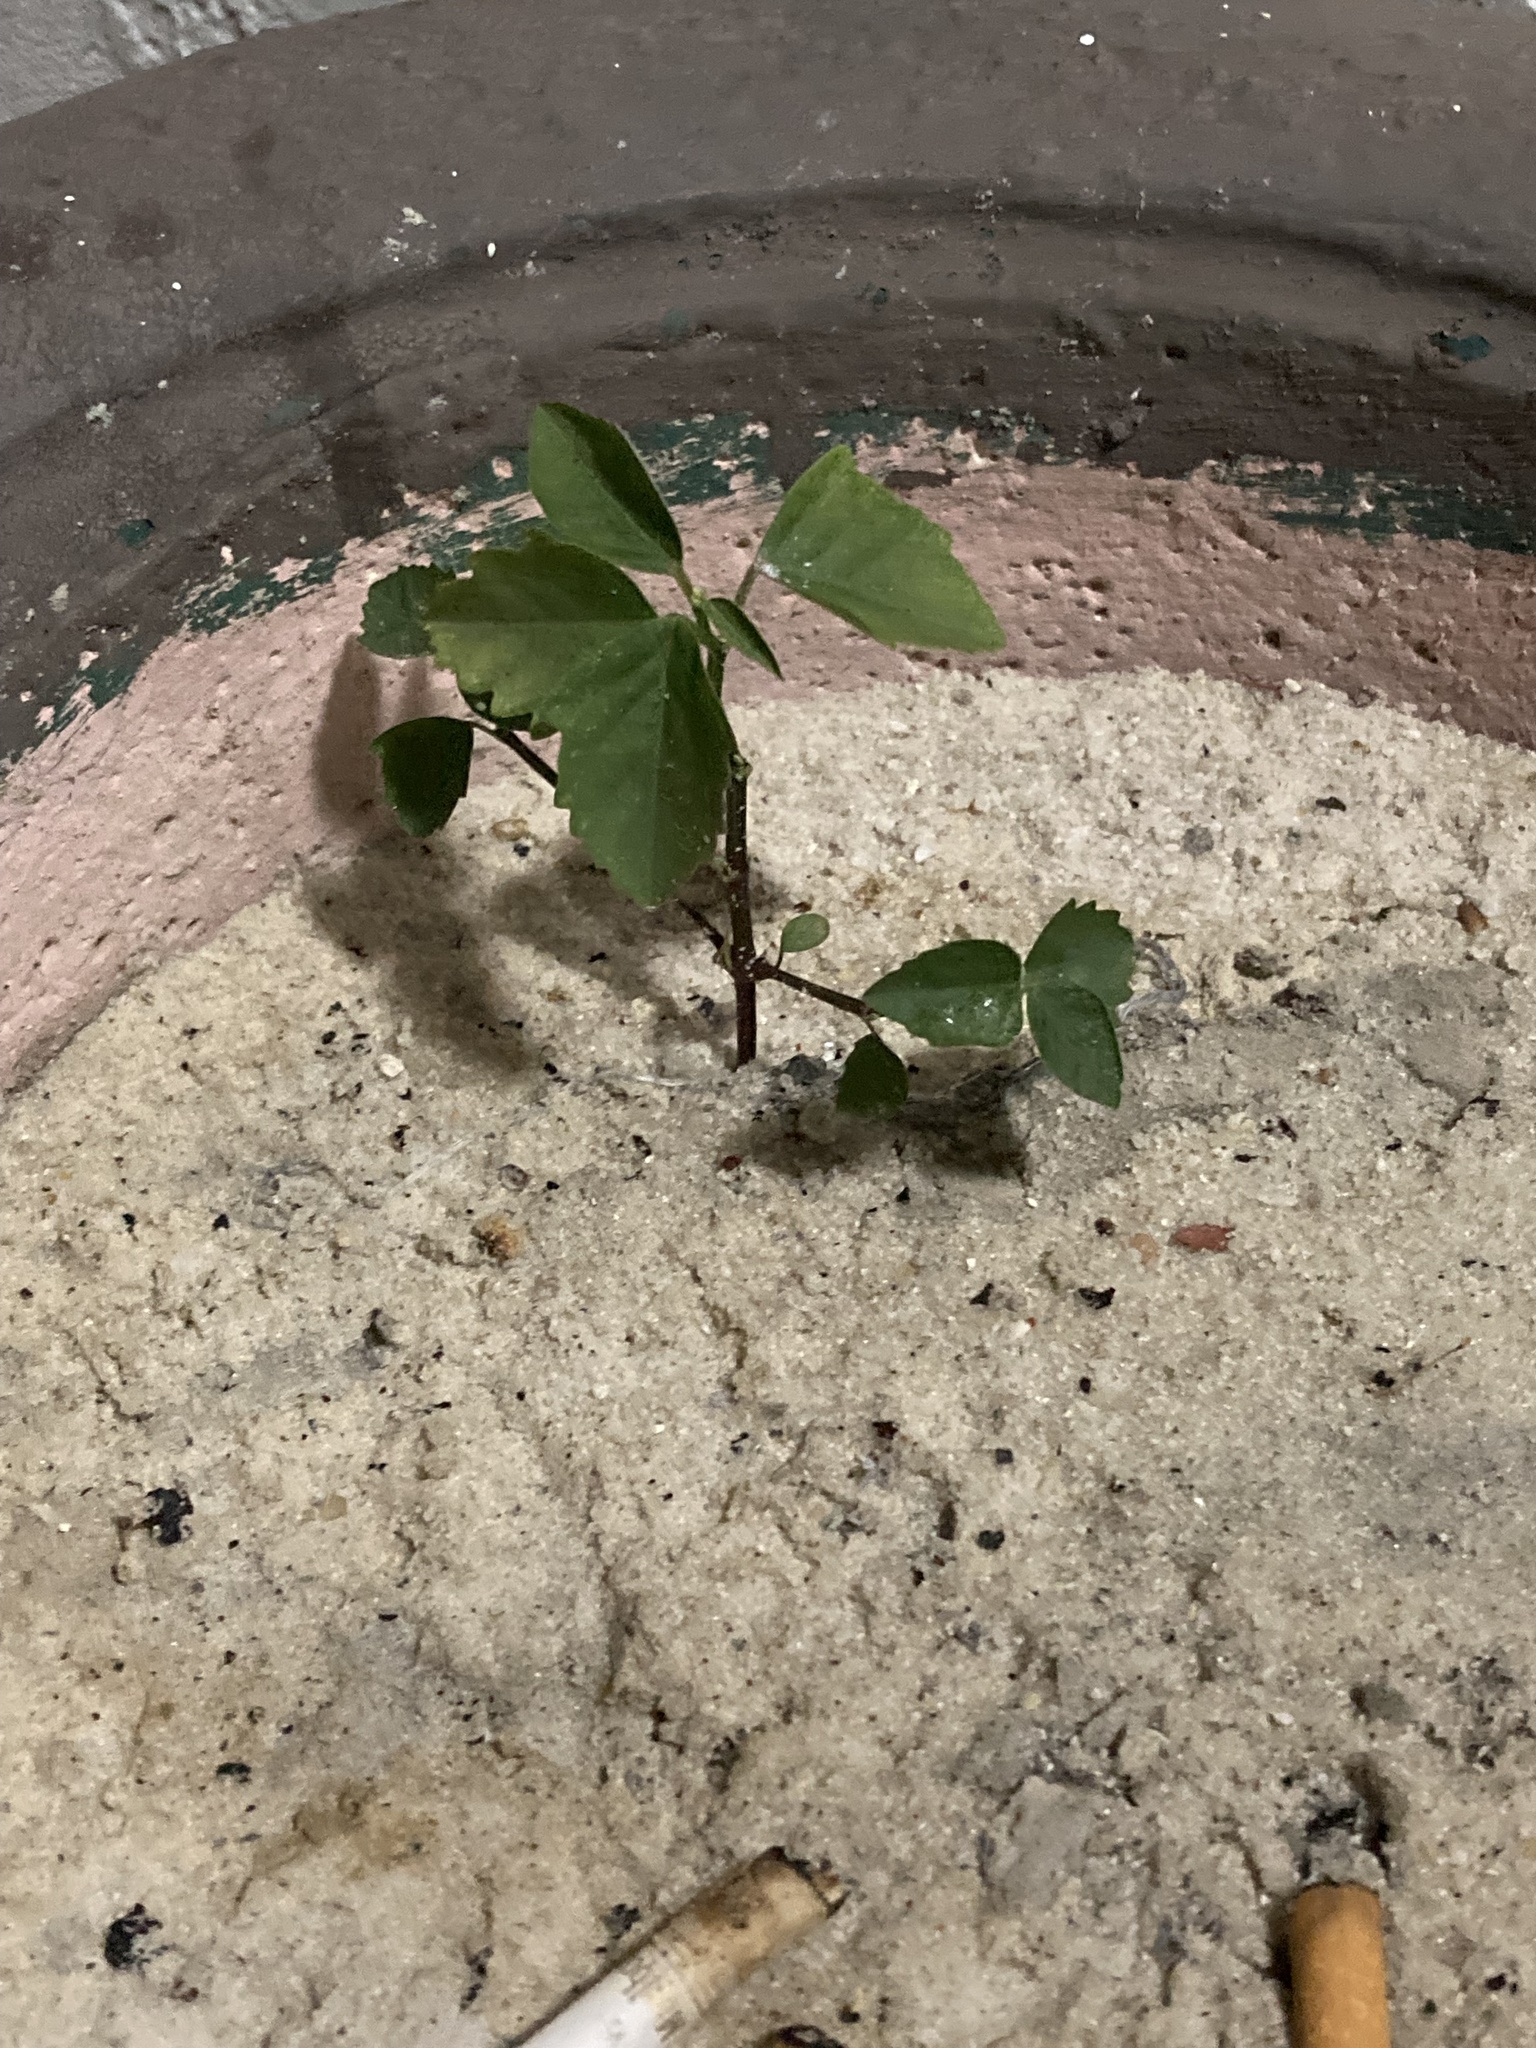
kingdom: Plantae
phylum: Tracheophyta
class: Magnoliopsida
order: Malpighiales
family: Euphorbiaceae
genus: Euphorbia
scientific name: Euphorbia graminea
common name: Grassleaf spurge
